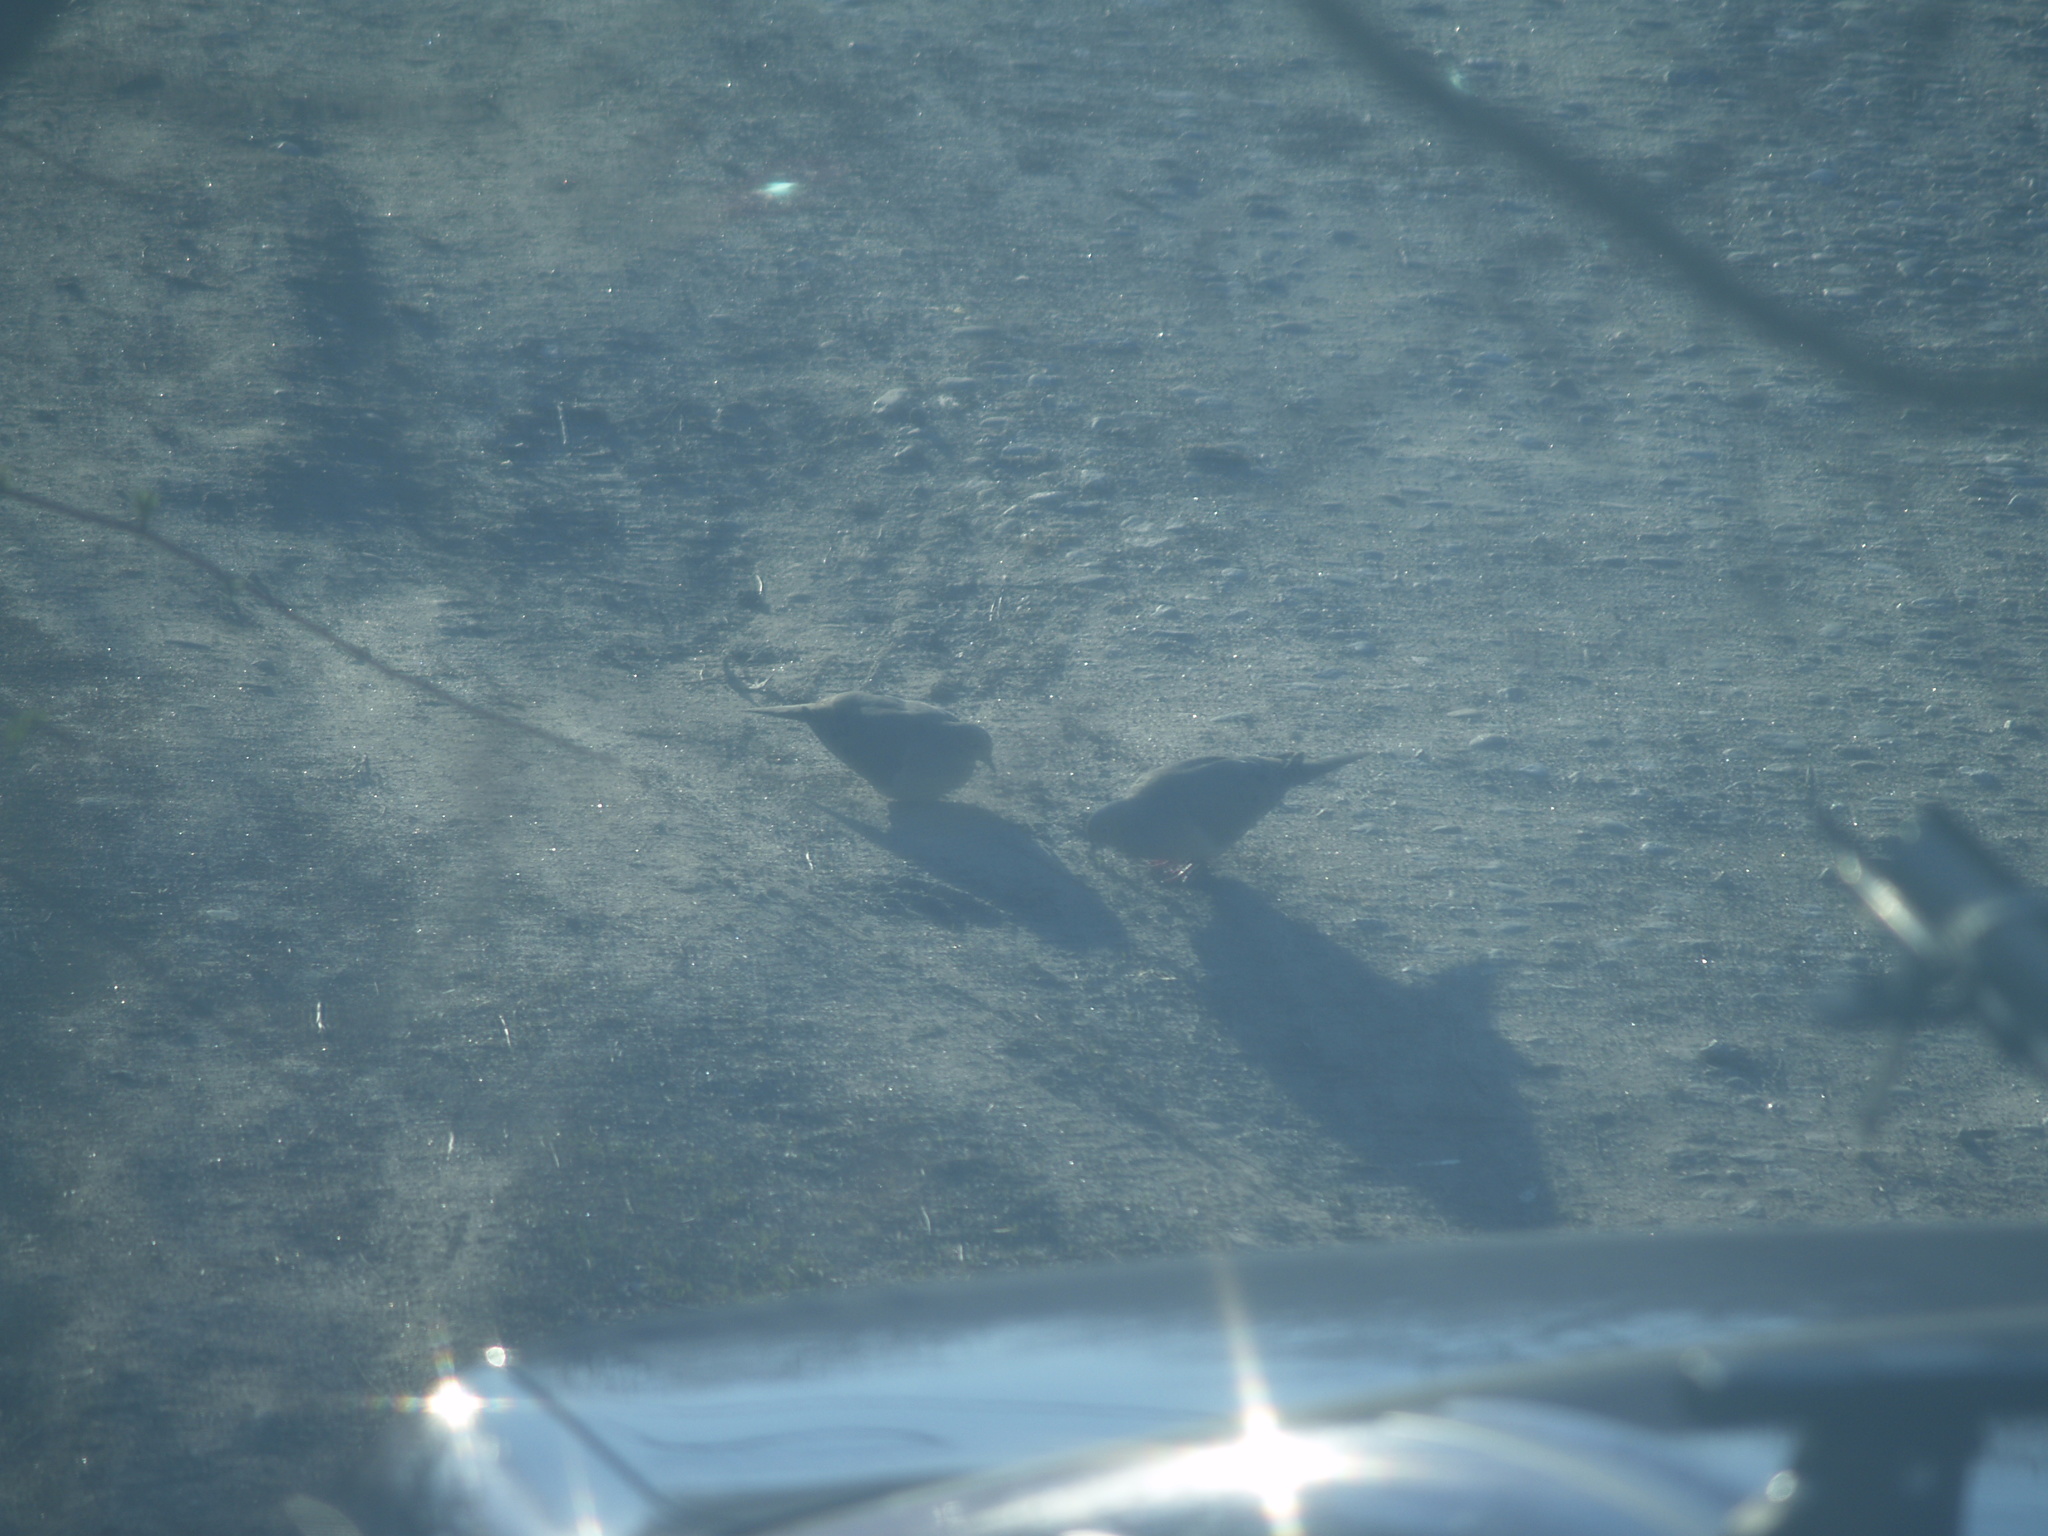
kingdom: Animalia
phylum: Chordata
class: Aves
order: Columbiformes
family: Columbidae
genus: Zenaida
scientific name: Zenaida macroura
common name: Mourning dove
